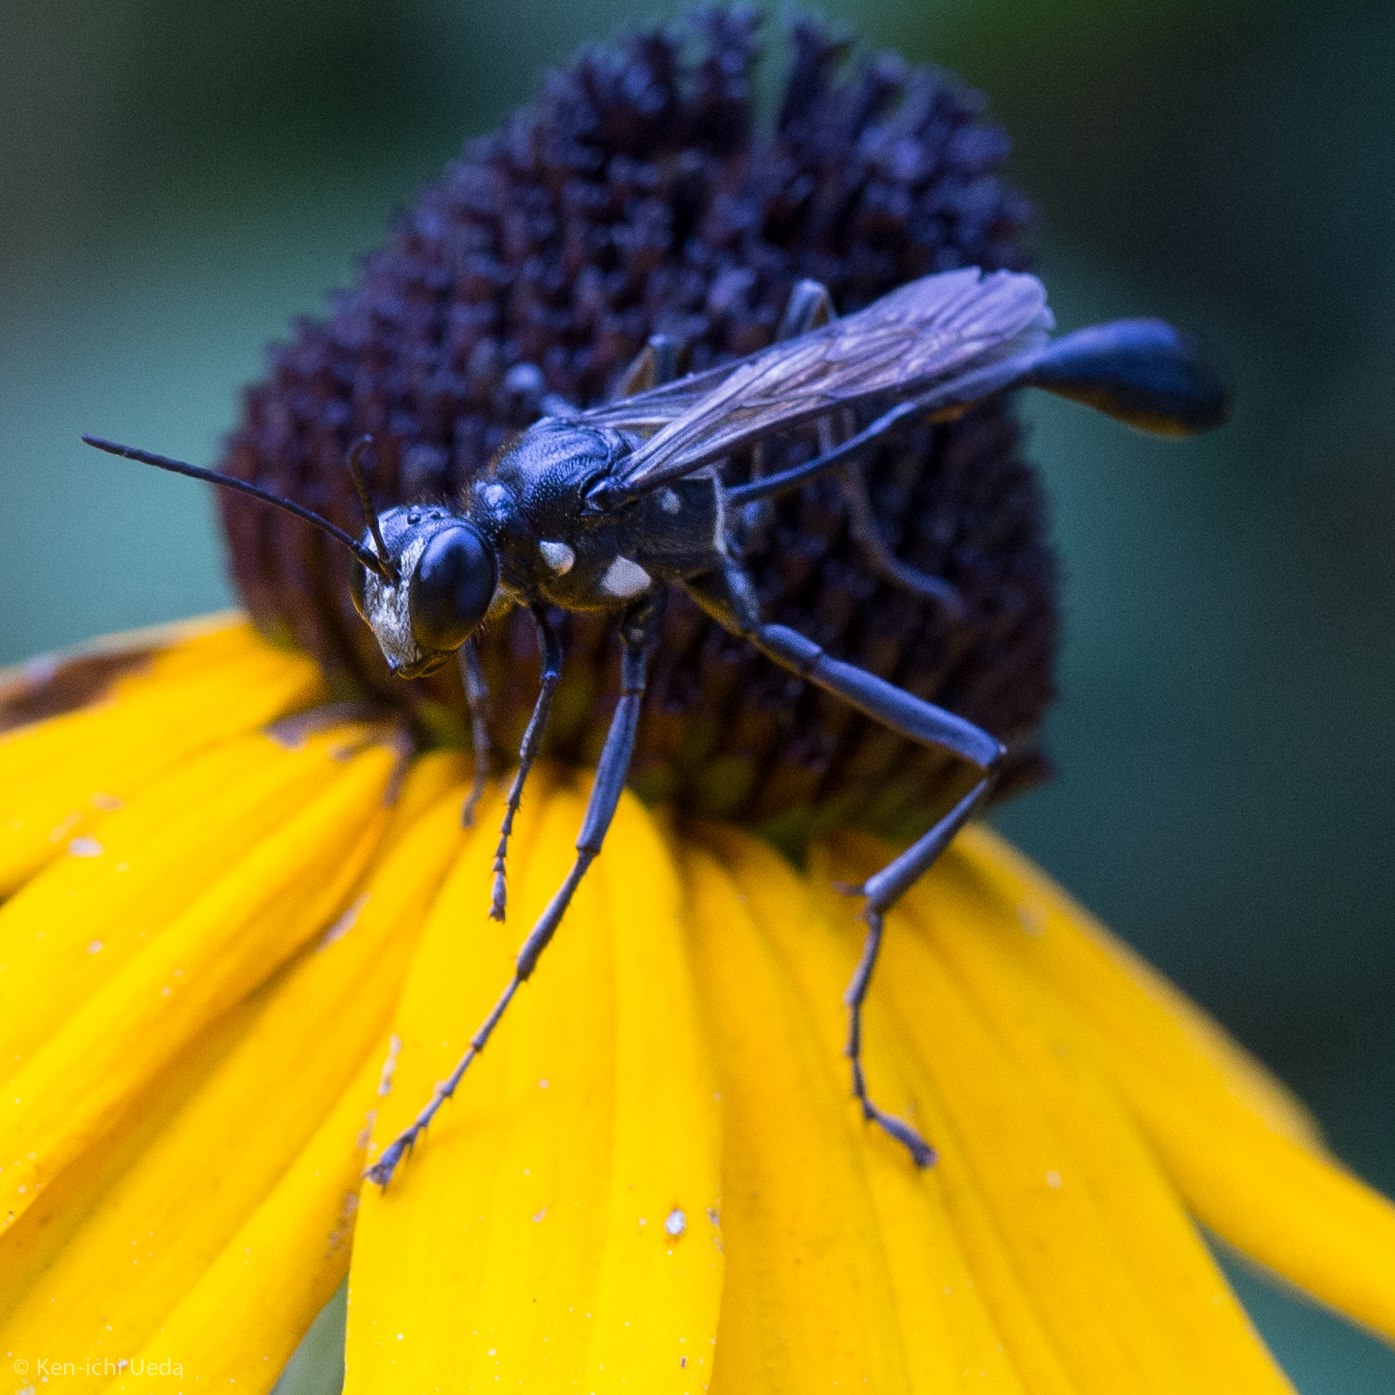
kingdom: Animalia
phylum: Arthropoda
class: Insecta
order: Hymenoptera
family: Sphecidae
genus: Eremnophila
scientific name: Eremnophila aureonotata
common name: Gold-marked thread-waisted wasp
